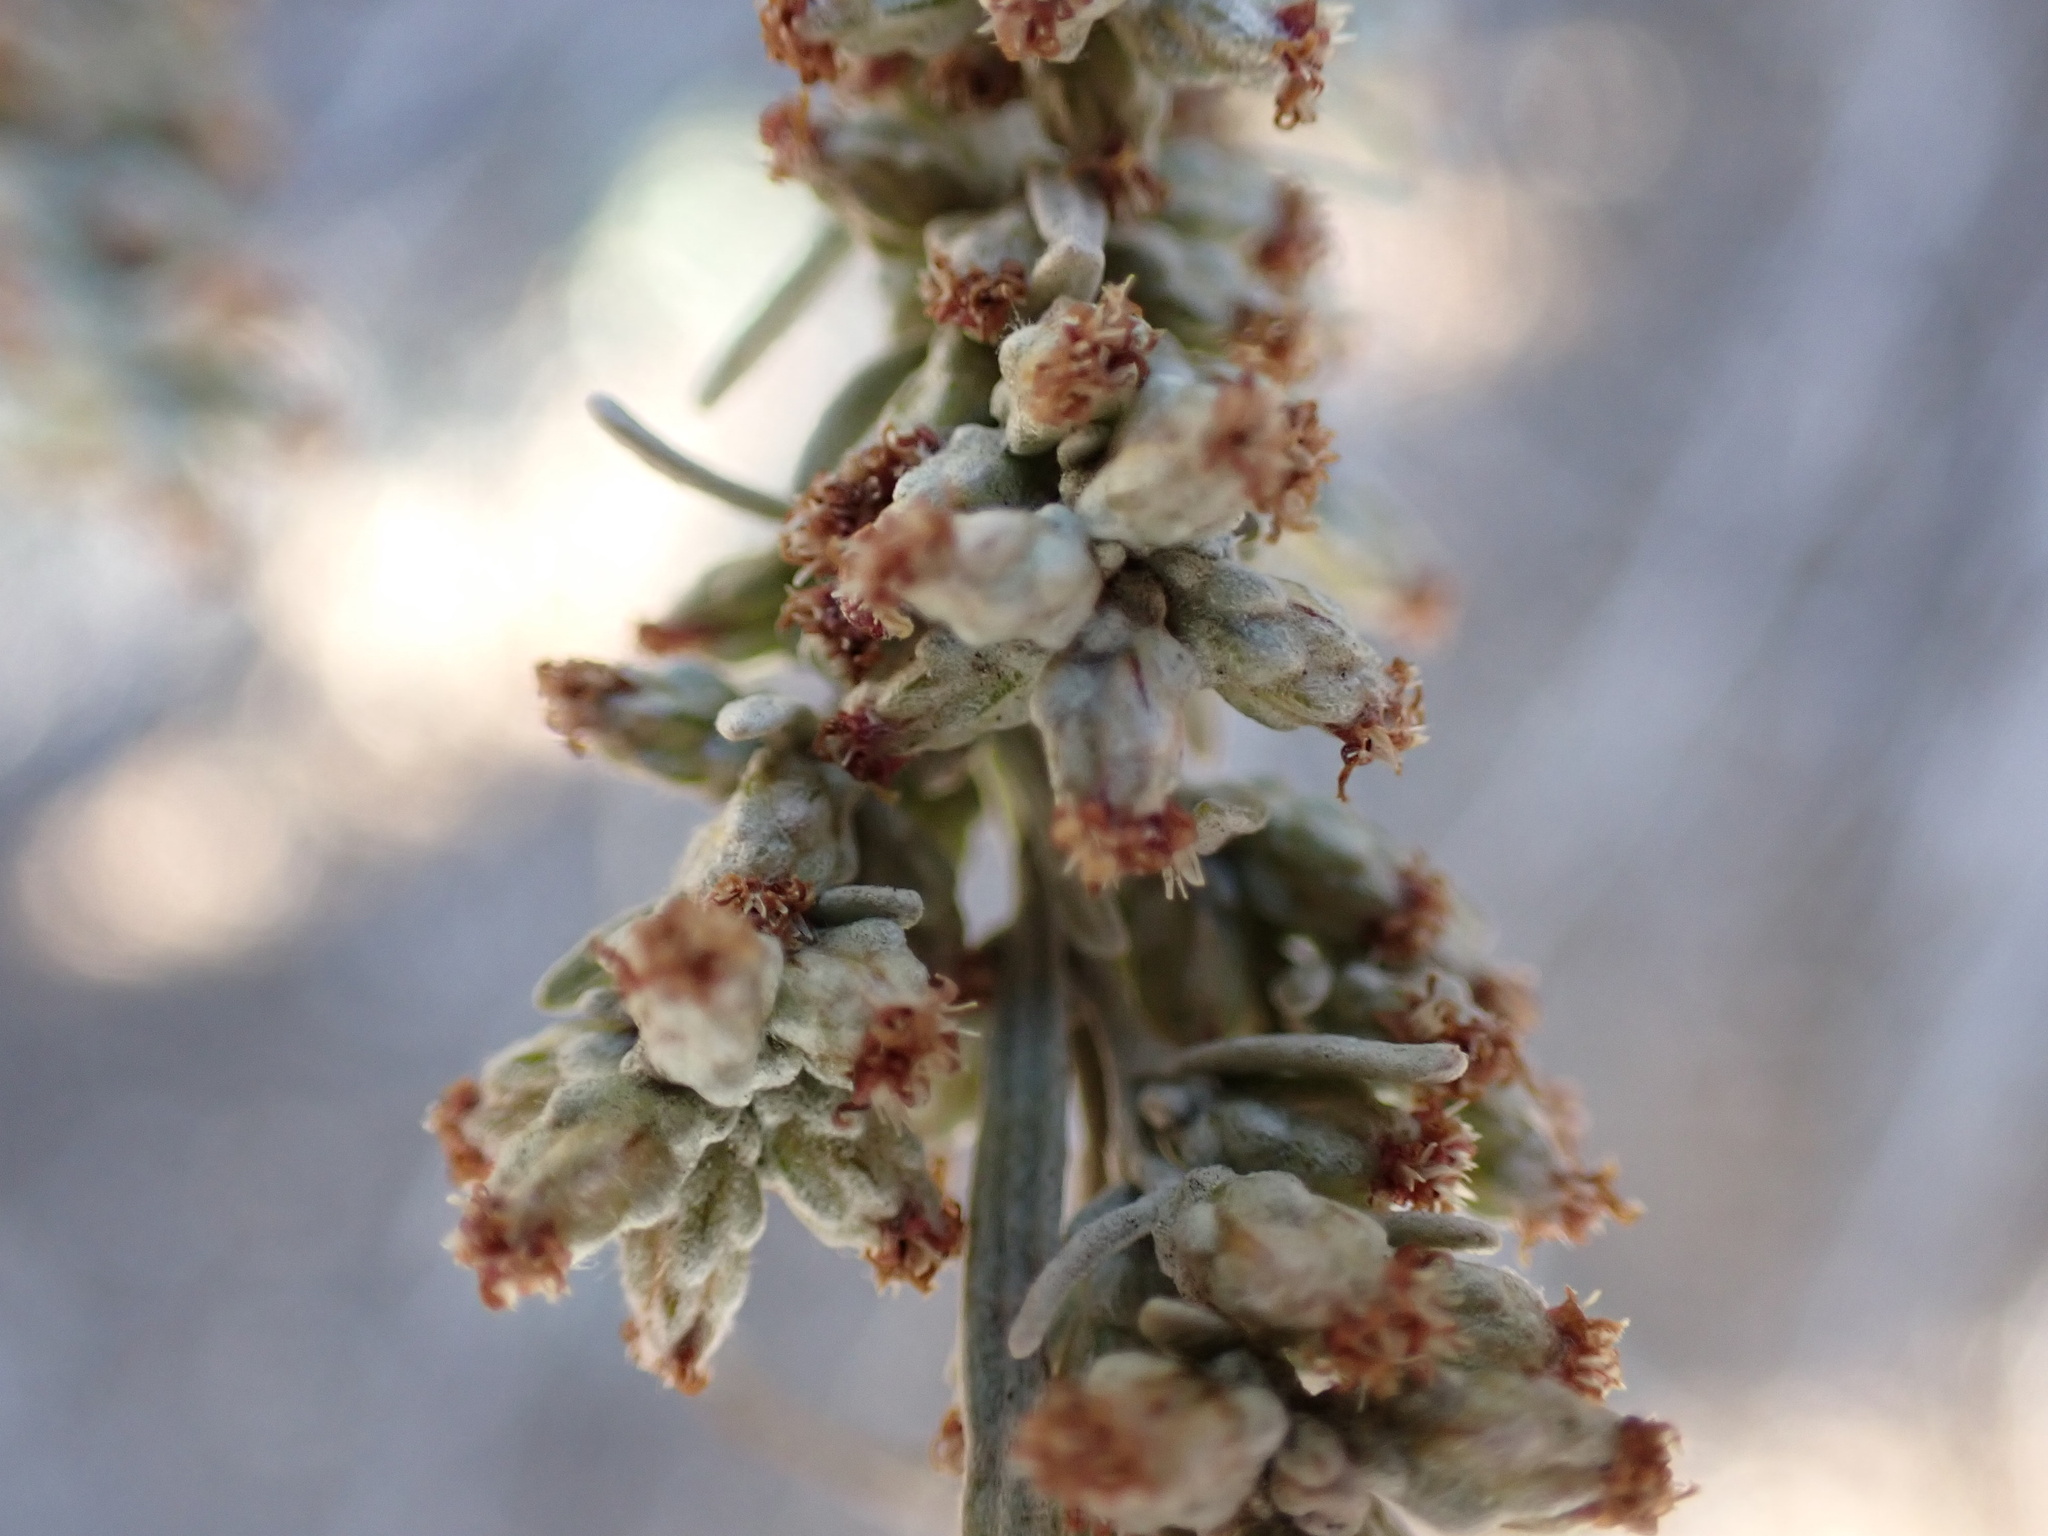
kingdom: Plantae
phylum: Tracheophyta
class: Magnoliopsida
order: Asterales
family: Asteraceae
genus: Artemisia
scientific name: Artemisia tridentata
